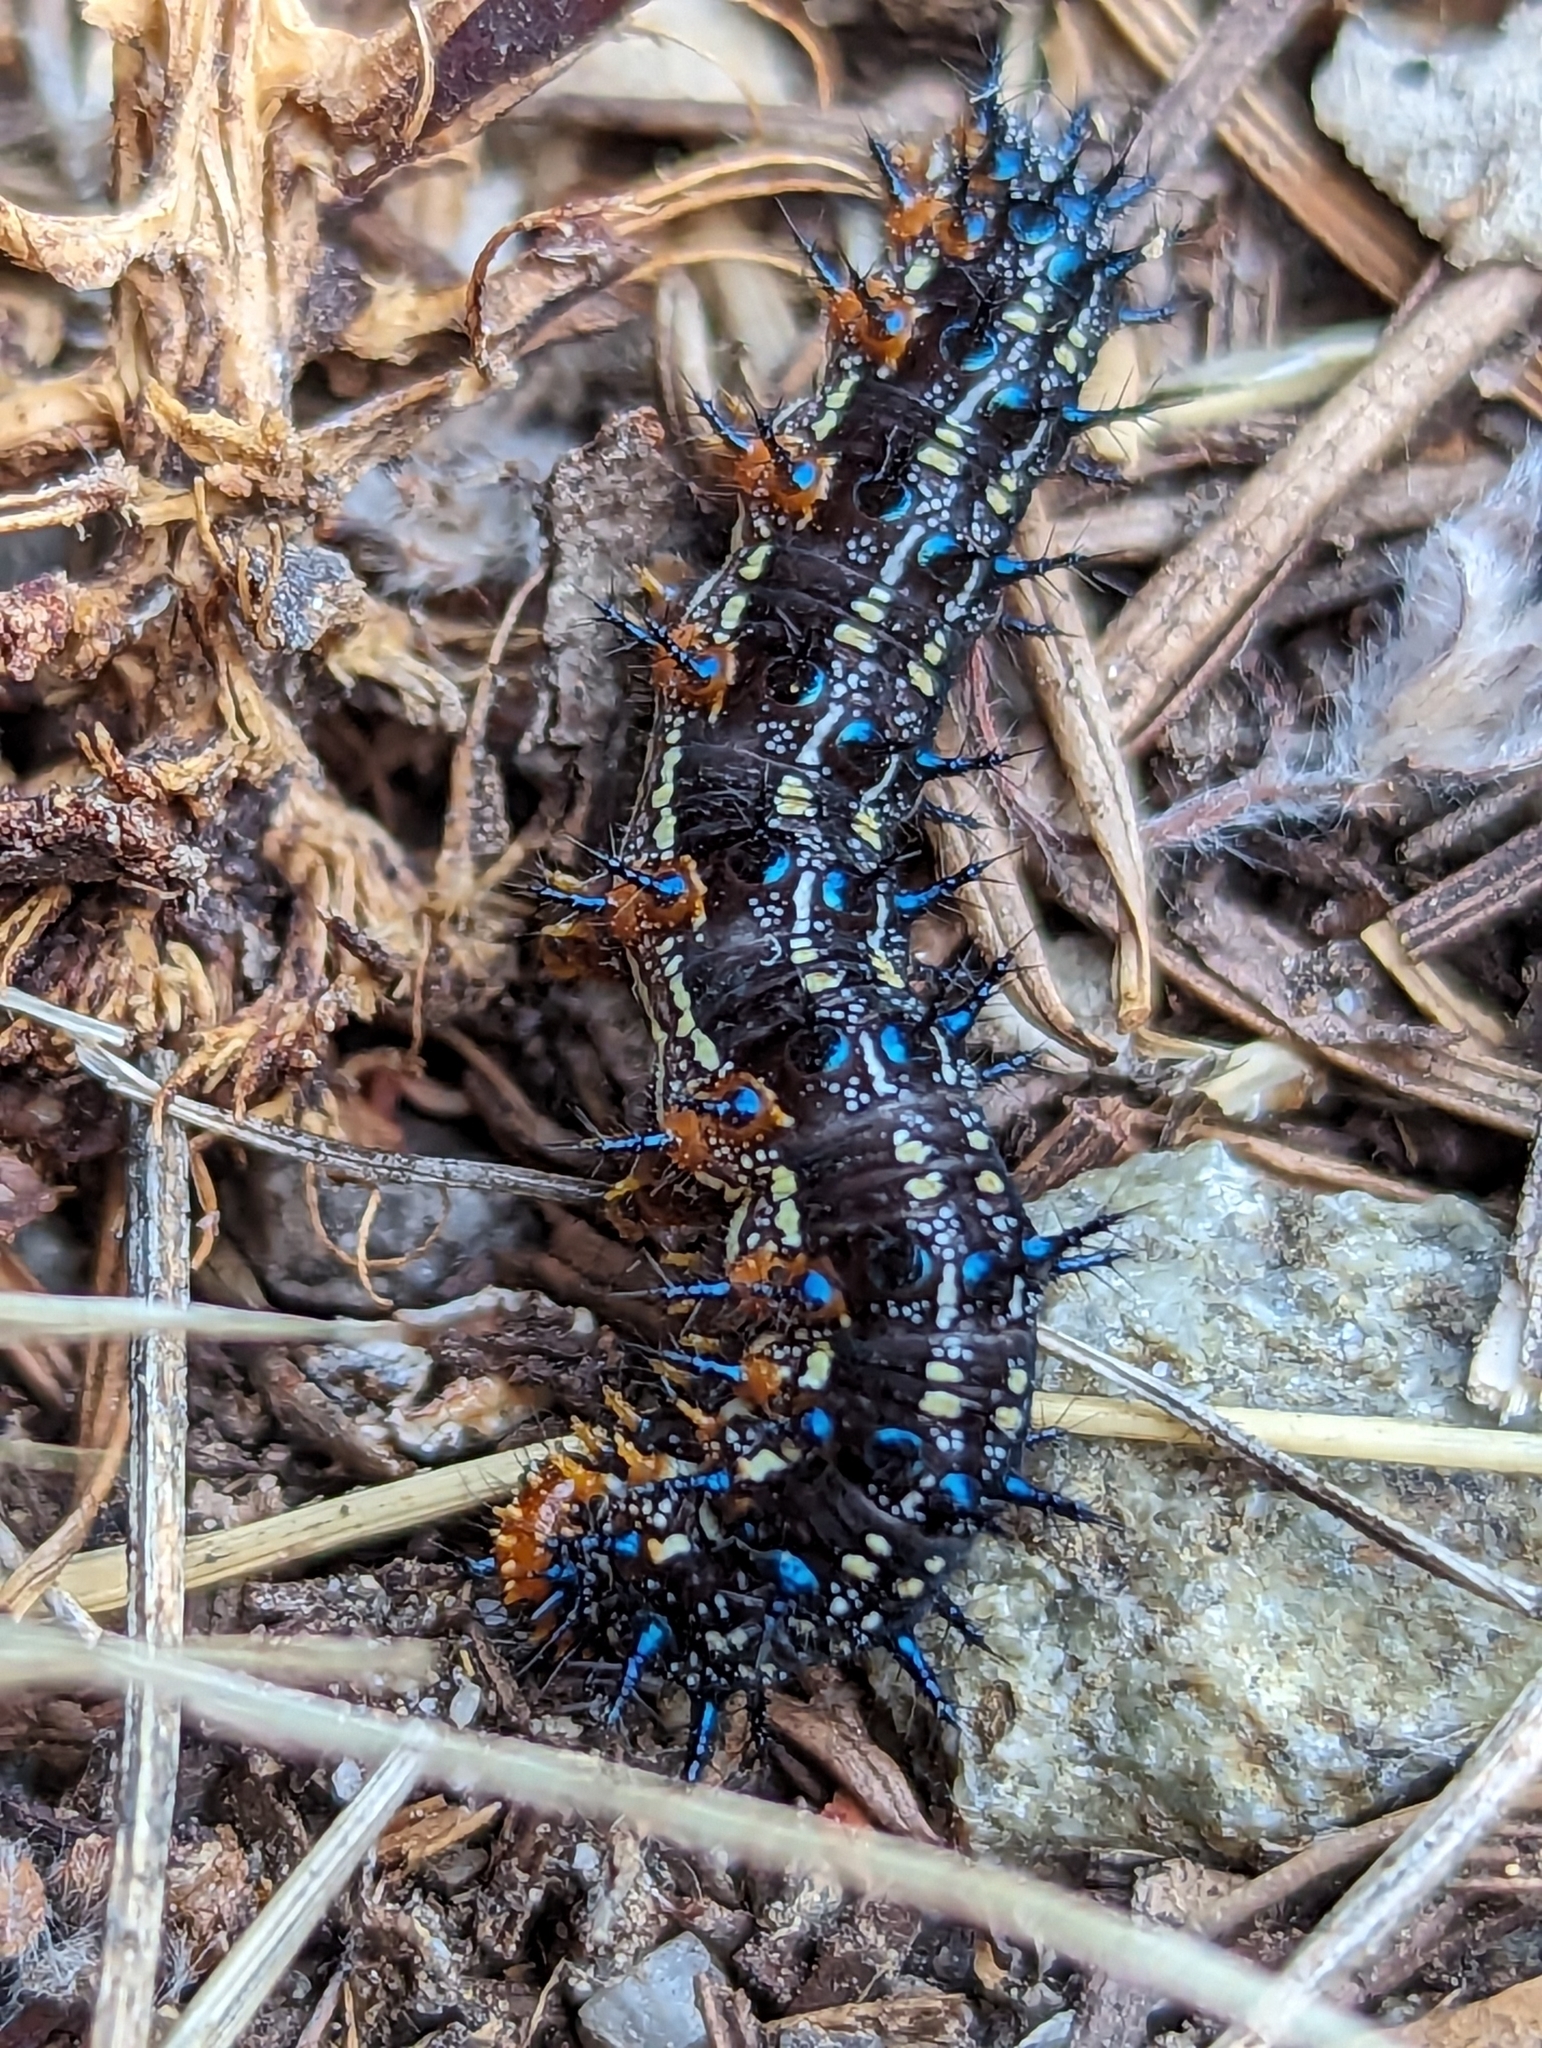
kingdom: Animalia
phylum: Arthropoda
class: Insecta
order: Lepidoptera
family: Nymphalidae
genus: Junonia
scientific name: Junonia grisea
